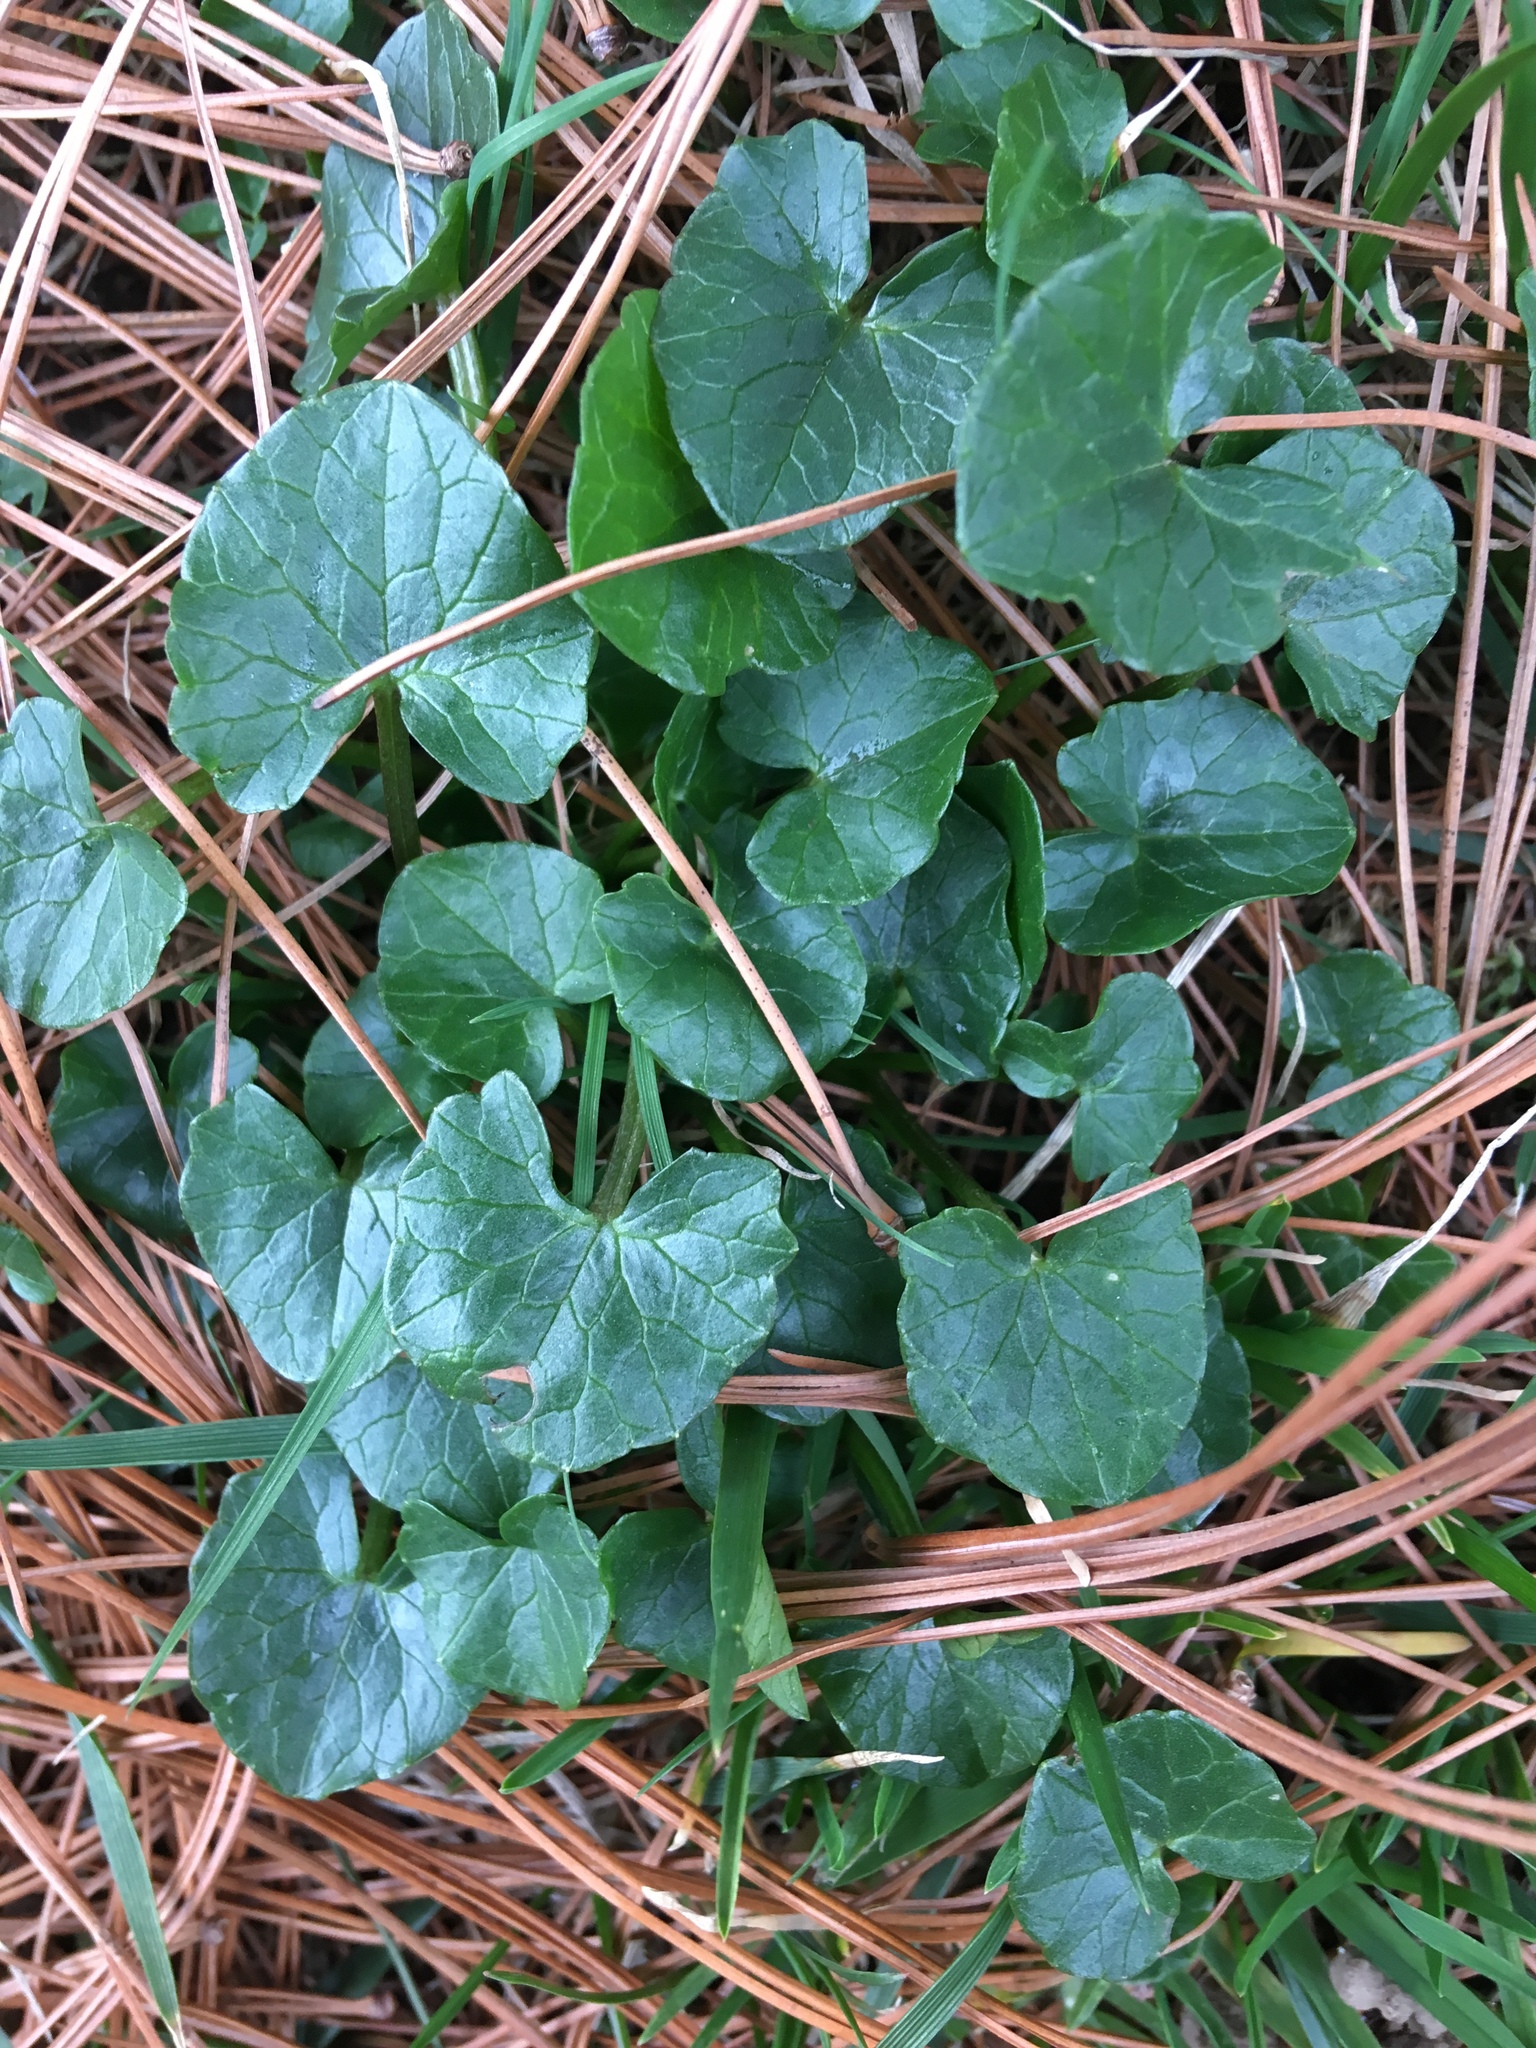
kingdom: Plantae
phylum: Tracheophyta
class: Magnoliopsida
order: Ranunculales
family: Ranunculaceae
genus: Ficaria
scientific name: Ficaria verna
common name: Lesser celandine
